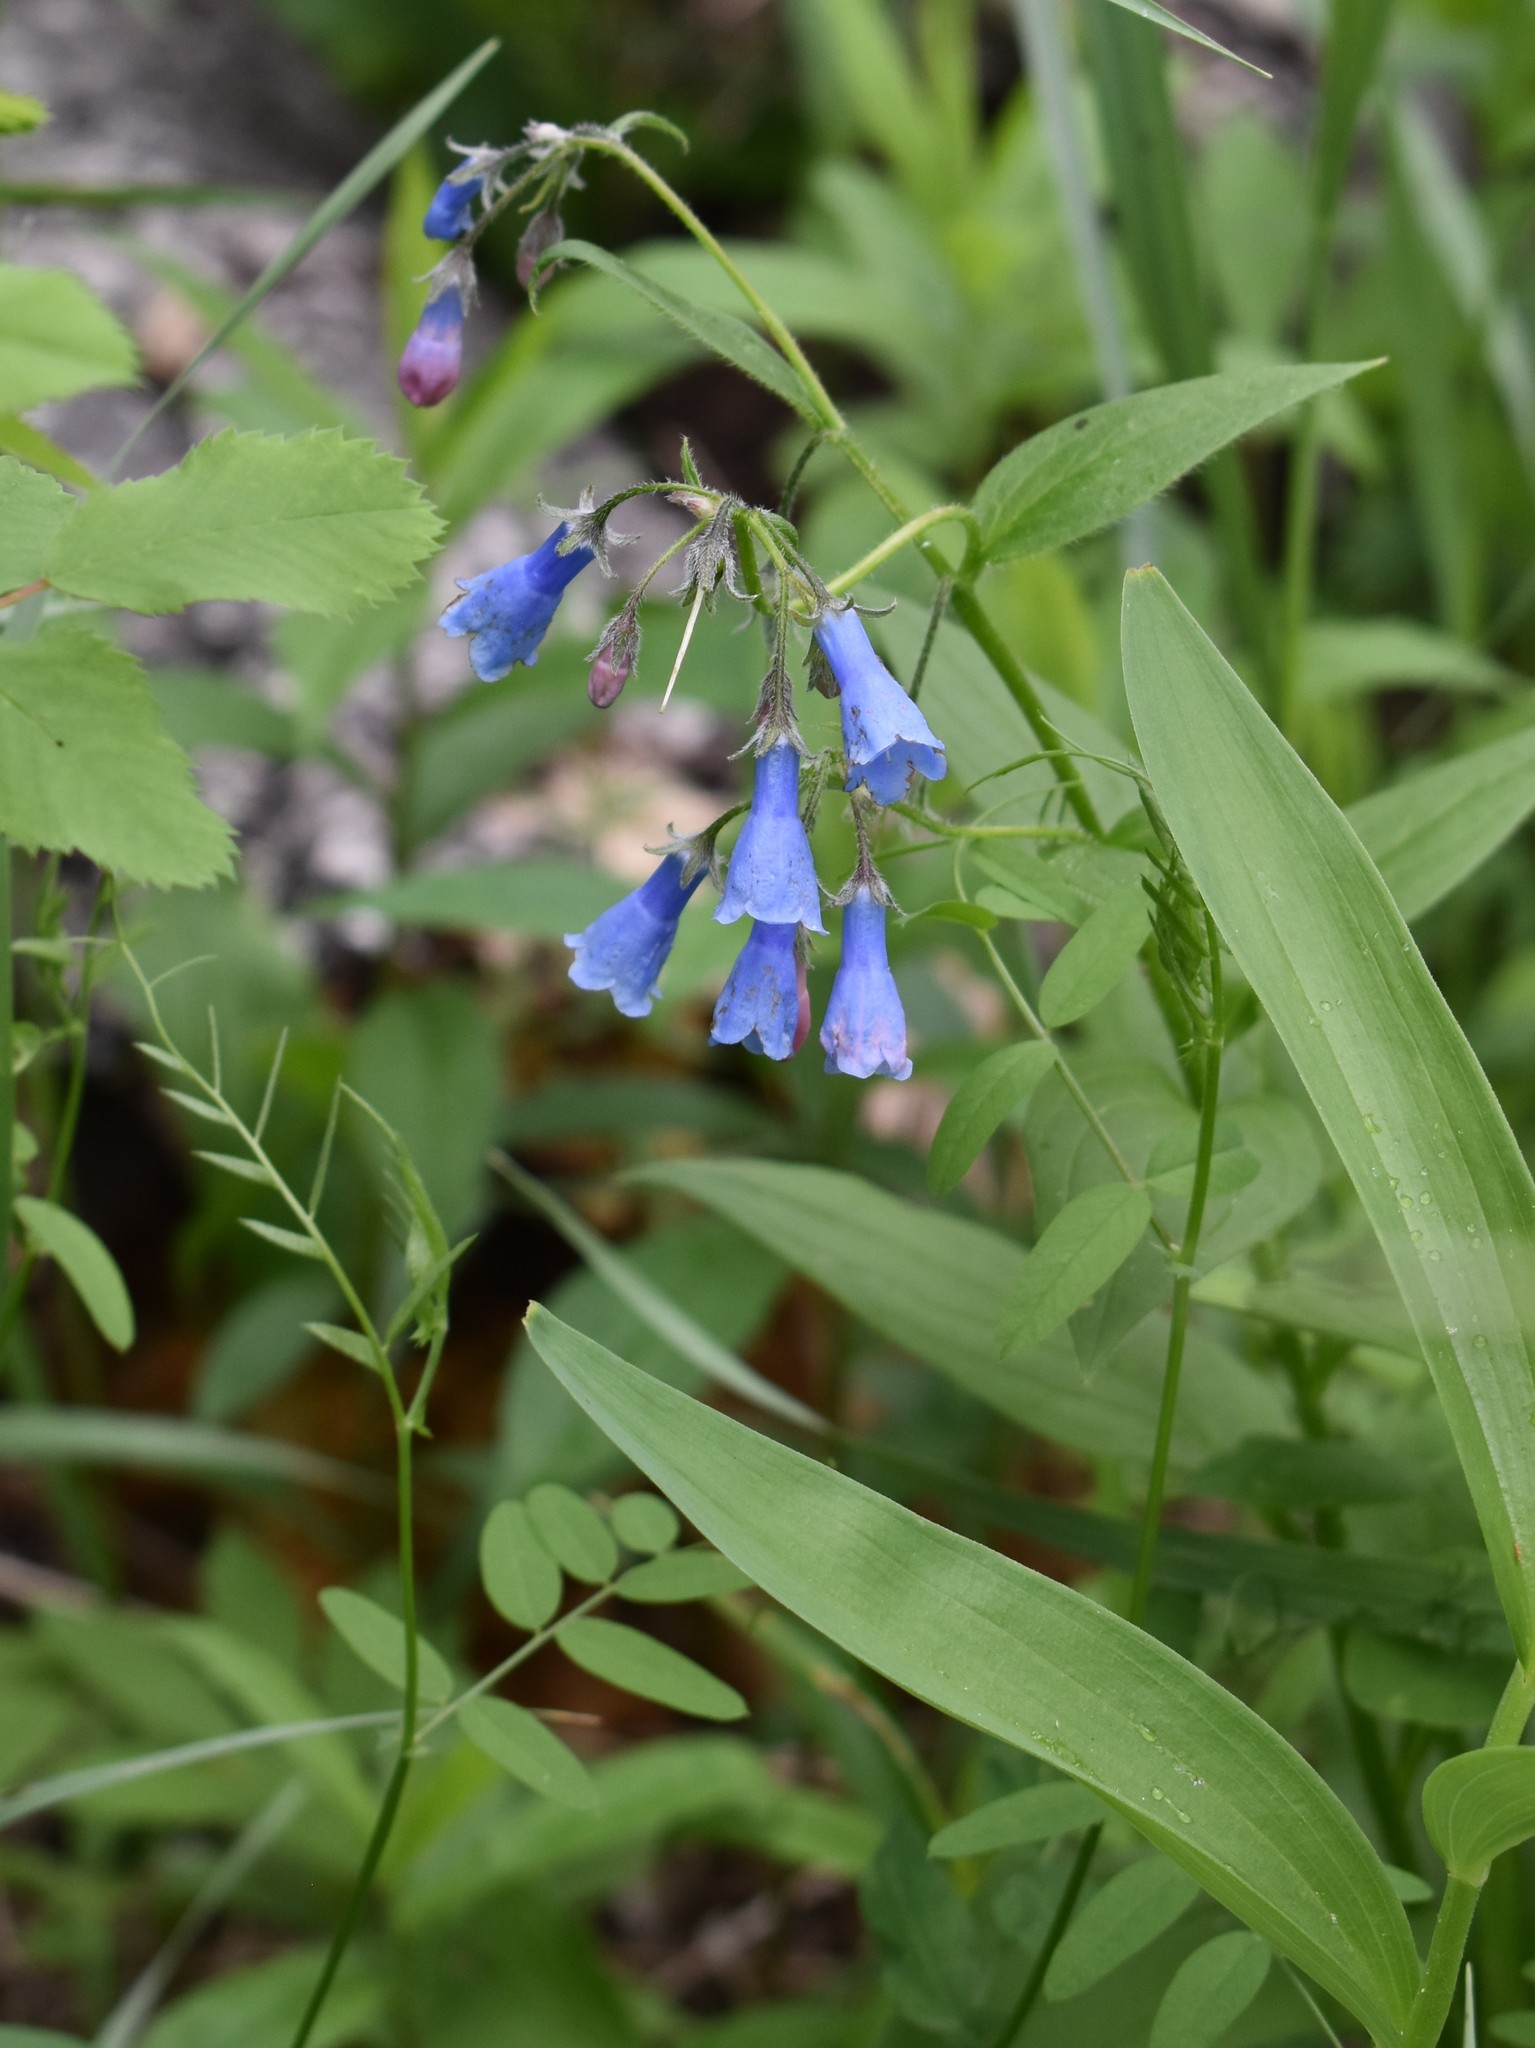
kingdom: Plantae
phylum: Tracheophyta
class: Magnoliopsida
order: Boraginales
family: Boraginaceae
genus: Mertensia
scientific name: Mertensia paniculata
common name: Panicled bluebells
